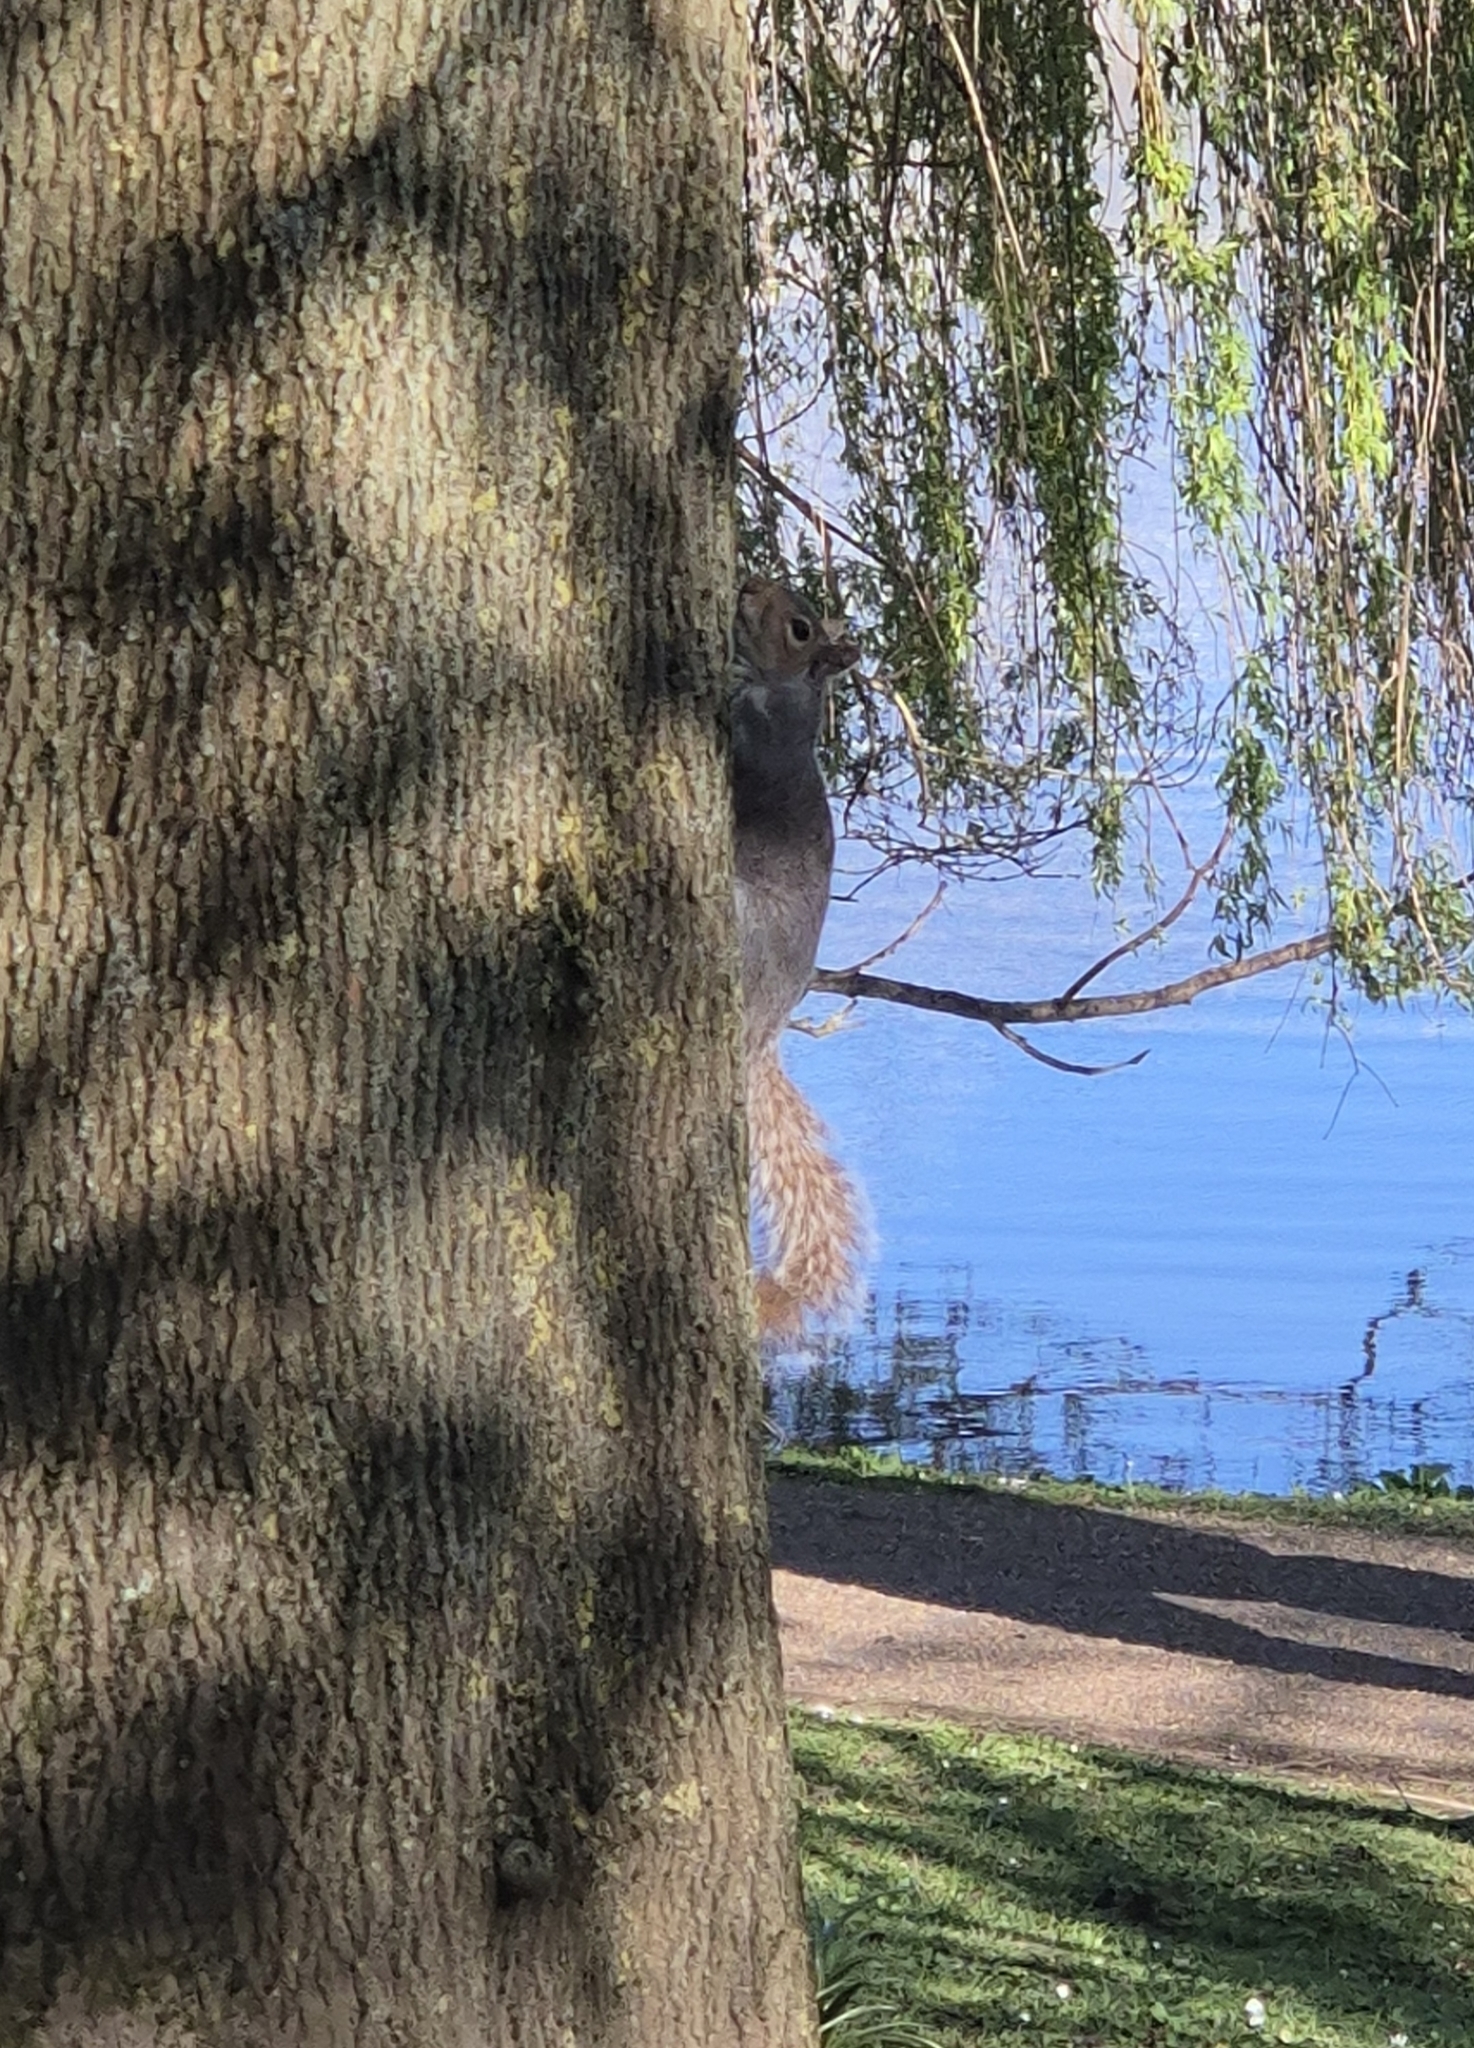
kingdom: Animalia
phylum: Chordata
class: Mammalia
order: Rodentia
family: Sciuridae
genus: Sciurus
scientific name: Sciurus carolinensis
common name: Eastern gray squirrel
